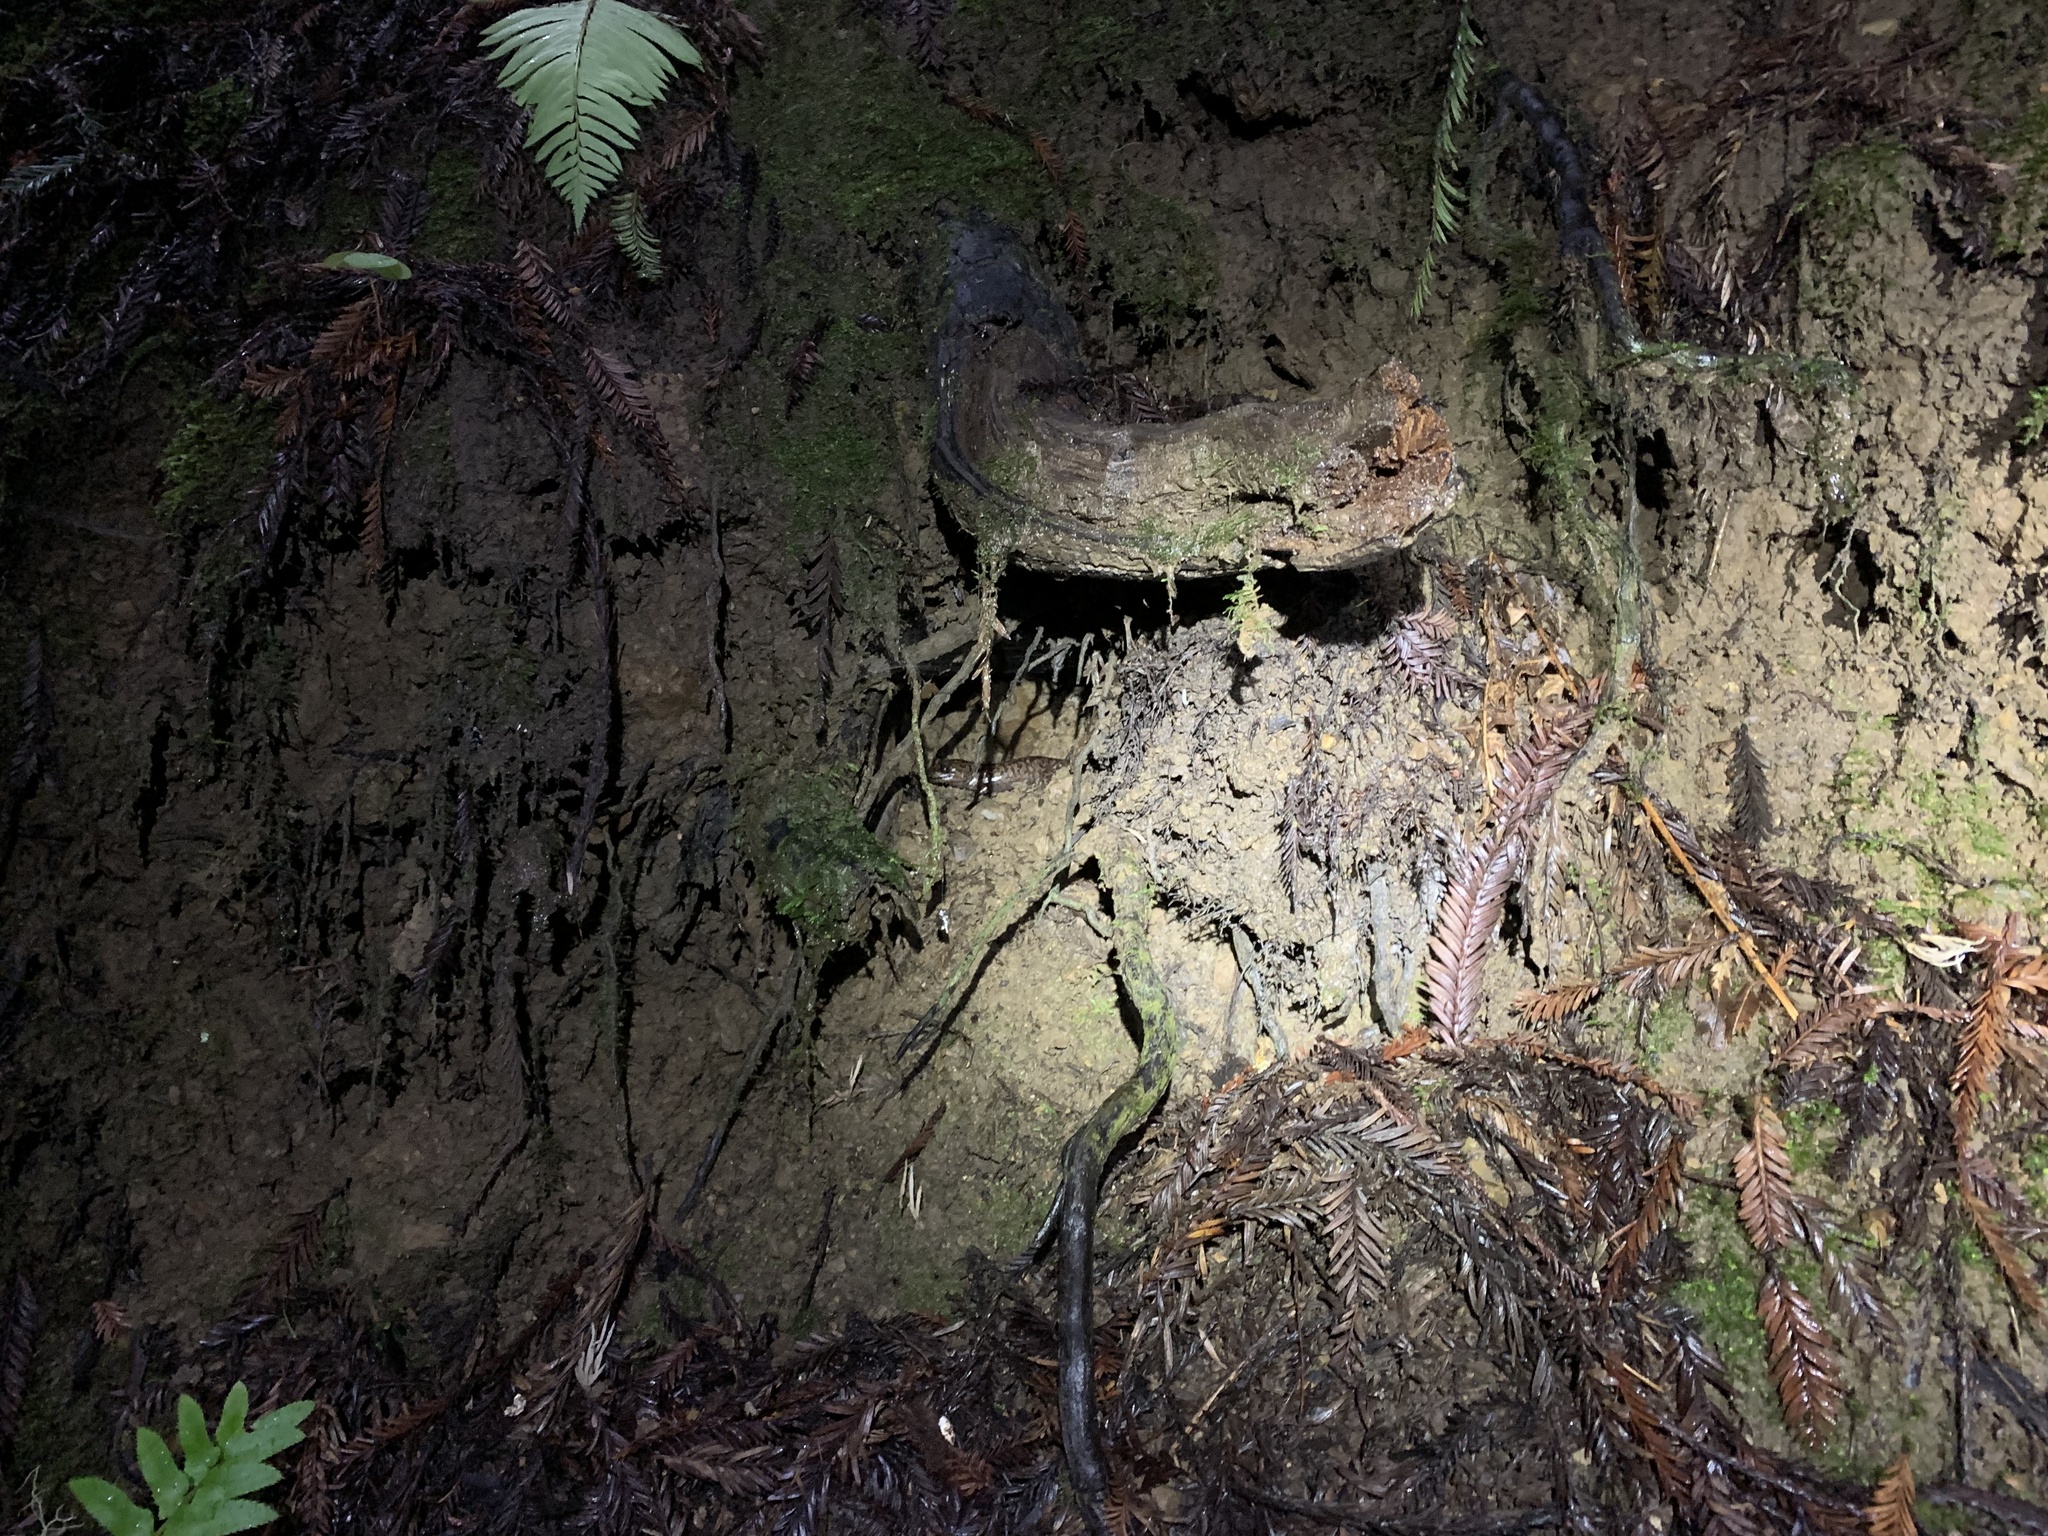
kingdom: Animalia
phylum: Chordata
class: Amphibia
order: Caudata
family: Ambystomatidae
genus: Dicamptodon
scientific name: Dicamptodon ensatus
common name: California giant salamander
